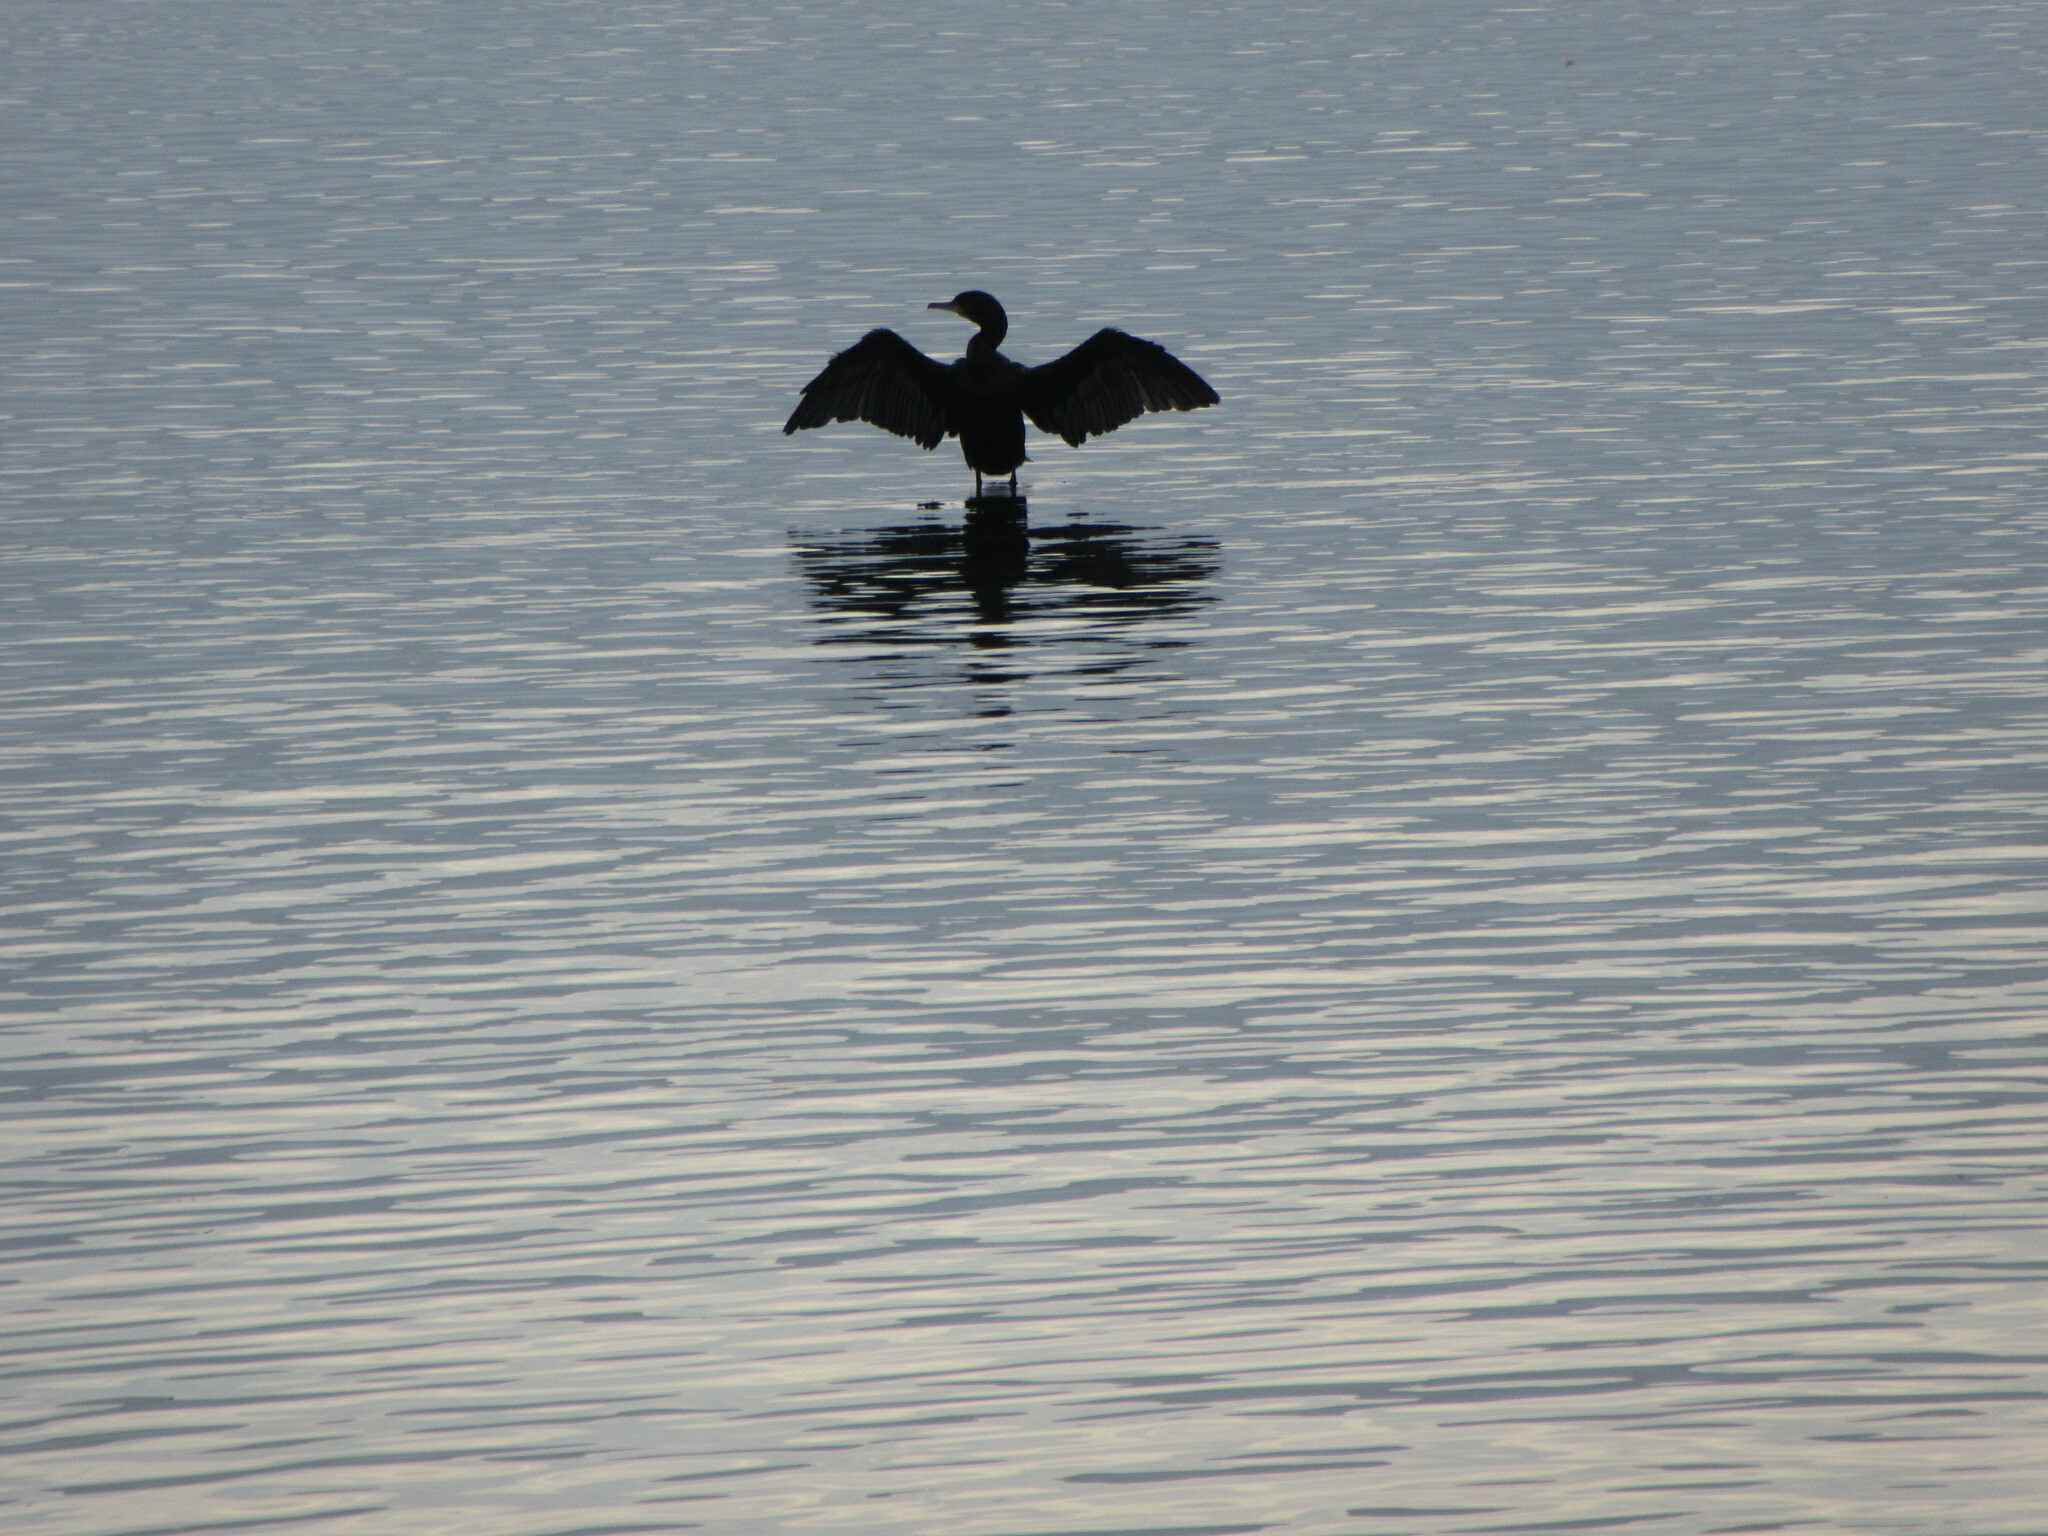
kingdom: Animalia
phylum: Chordata
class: Aves
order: Suliformes
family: Phalacrocoracidae
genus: Phalacrocorax
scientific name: Phalacrocorax carbo
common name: Great cormorant
